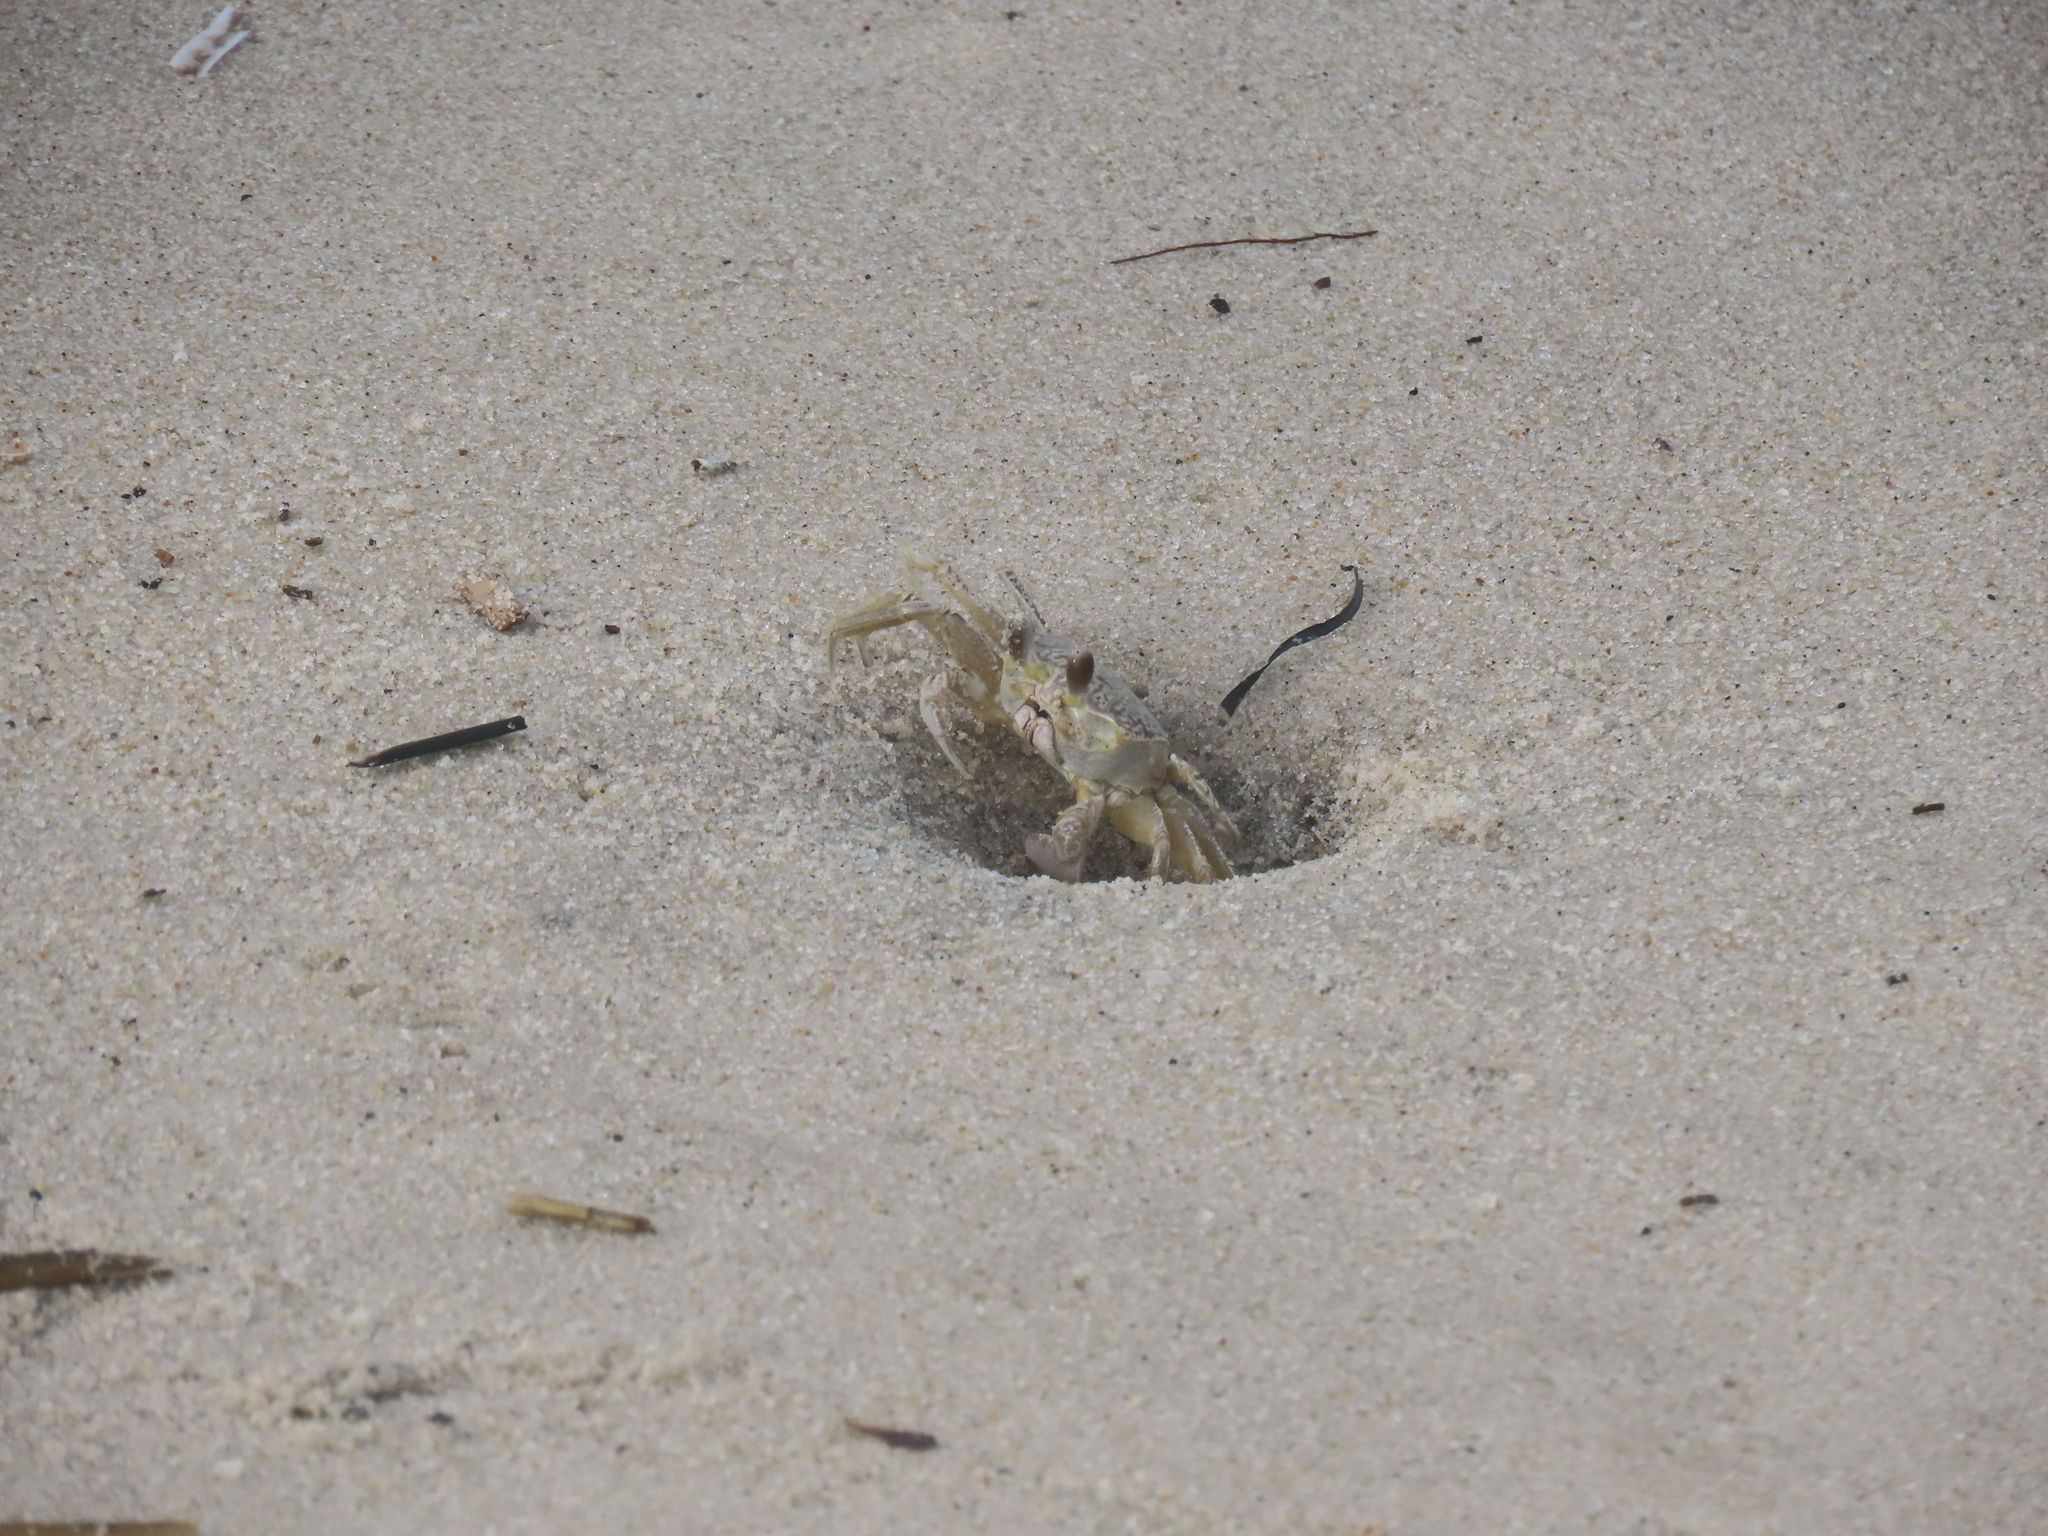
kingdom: Animalia
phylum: Arthropoda
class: Malacostraca
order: Decapoda
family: Ocypodidae
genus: Ocypode
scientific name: Ocypode quadrata
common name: Ghost crab
